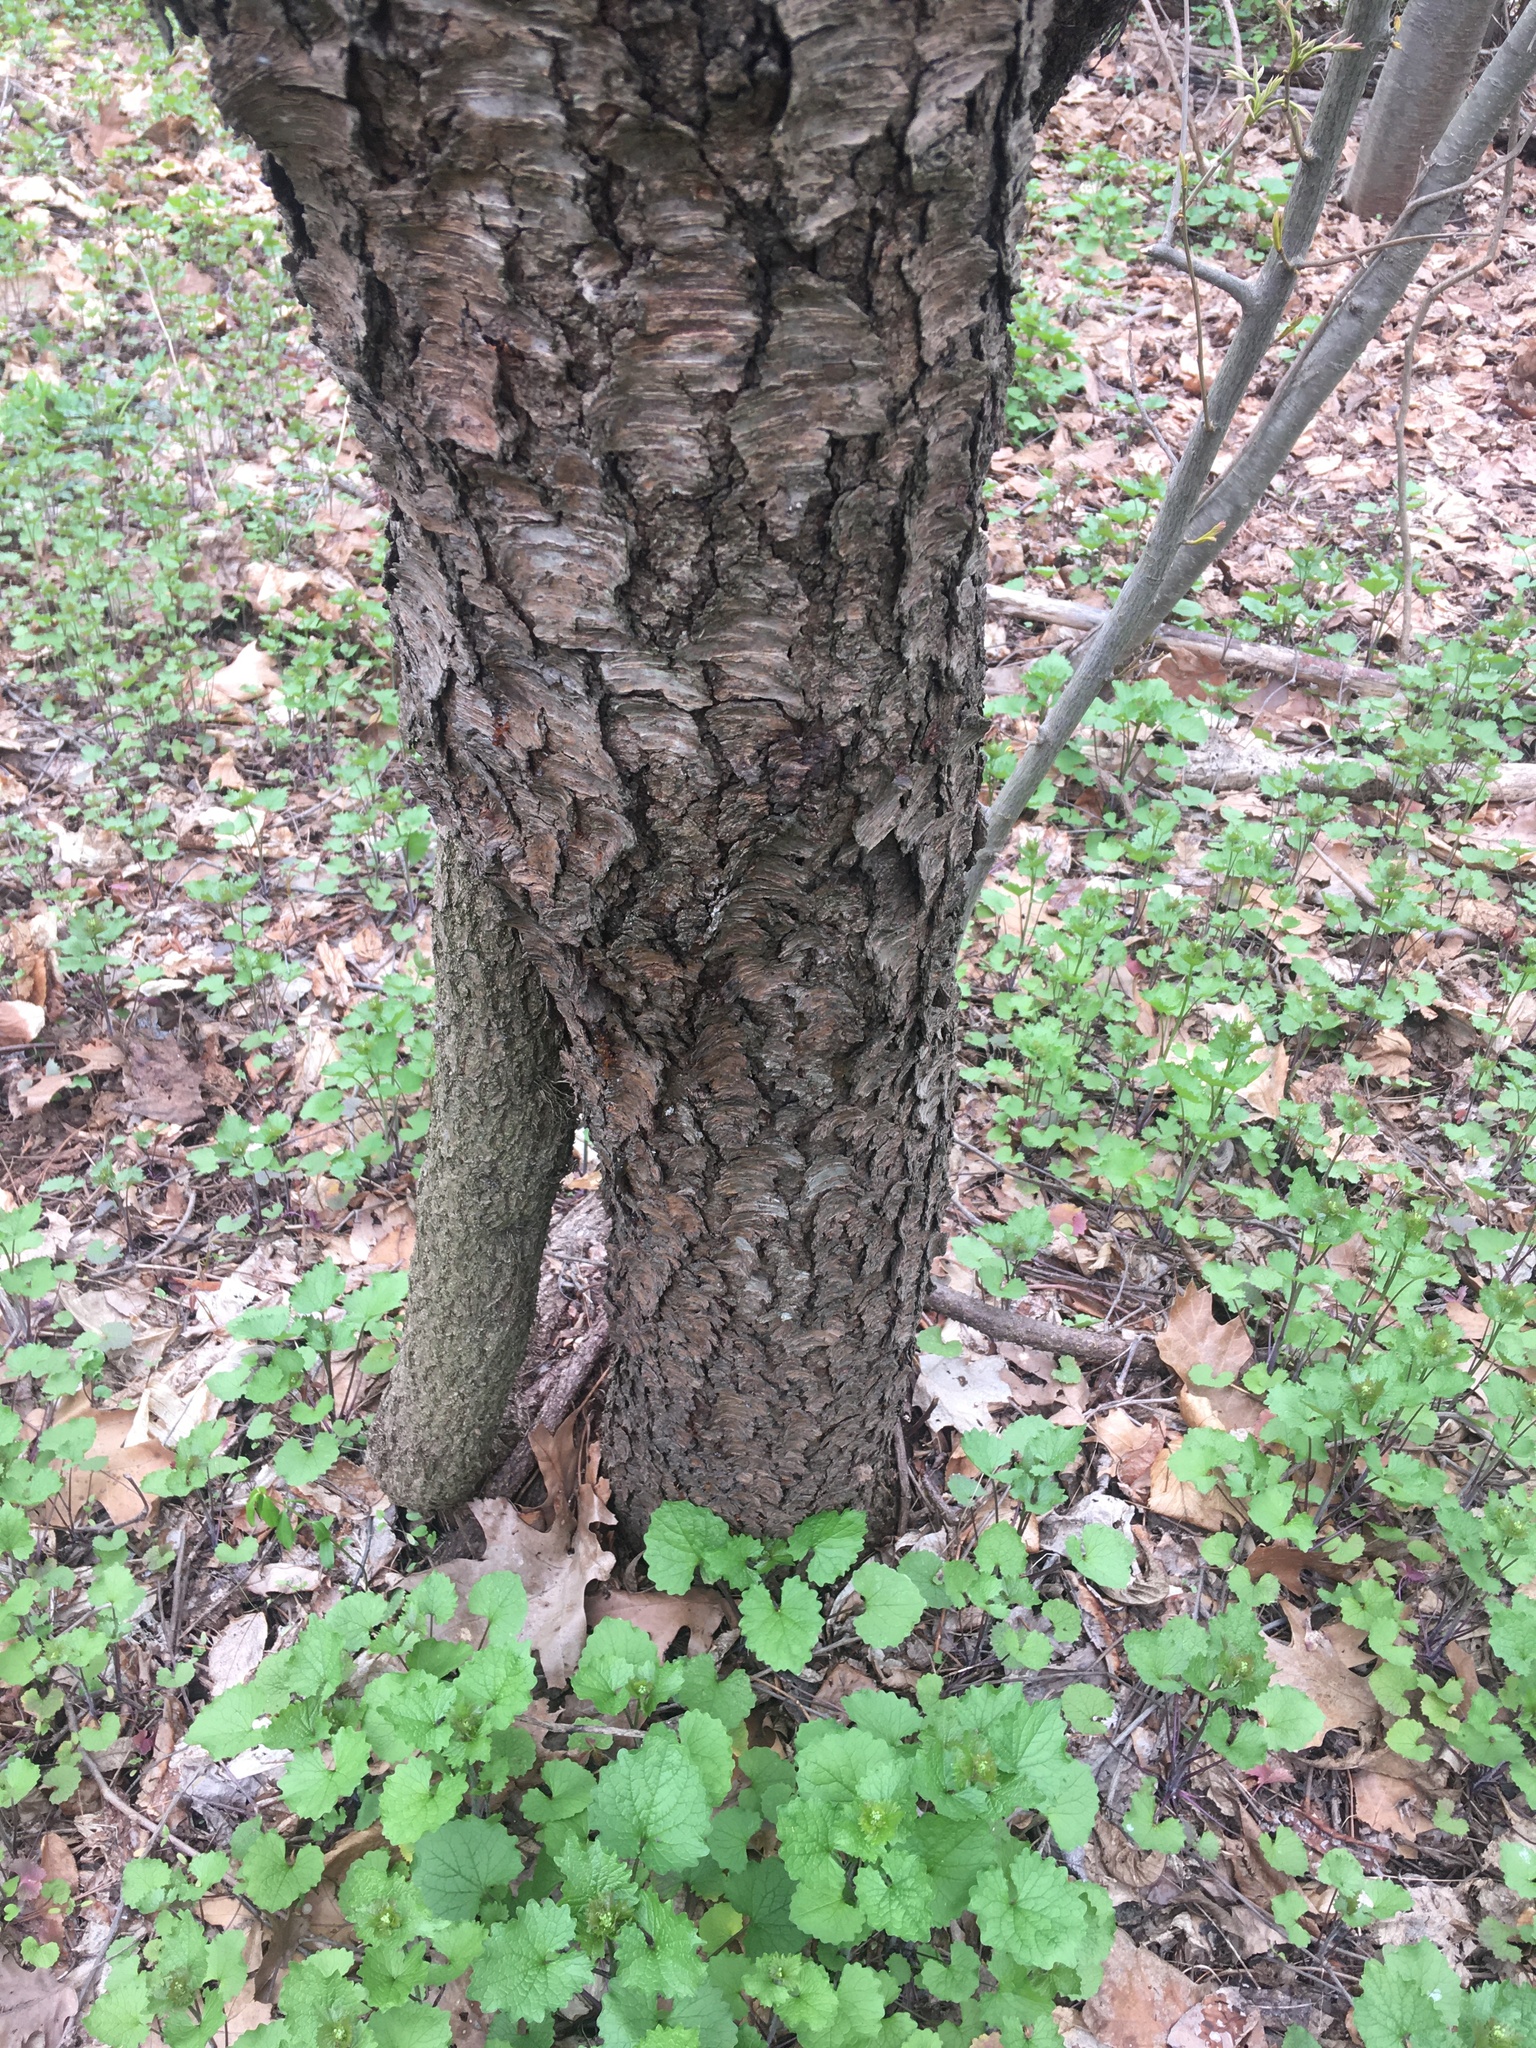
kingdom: Plantae
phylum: Tracheophyta
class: Magnoliopsida
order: Rosales
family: Rosaceae
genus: Prunus
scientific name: Prunus serotina
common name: Black cherry
